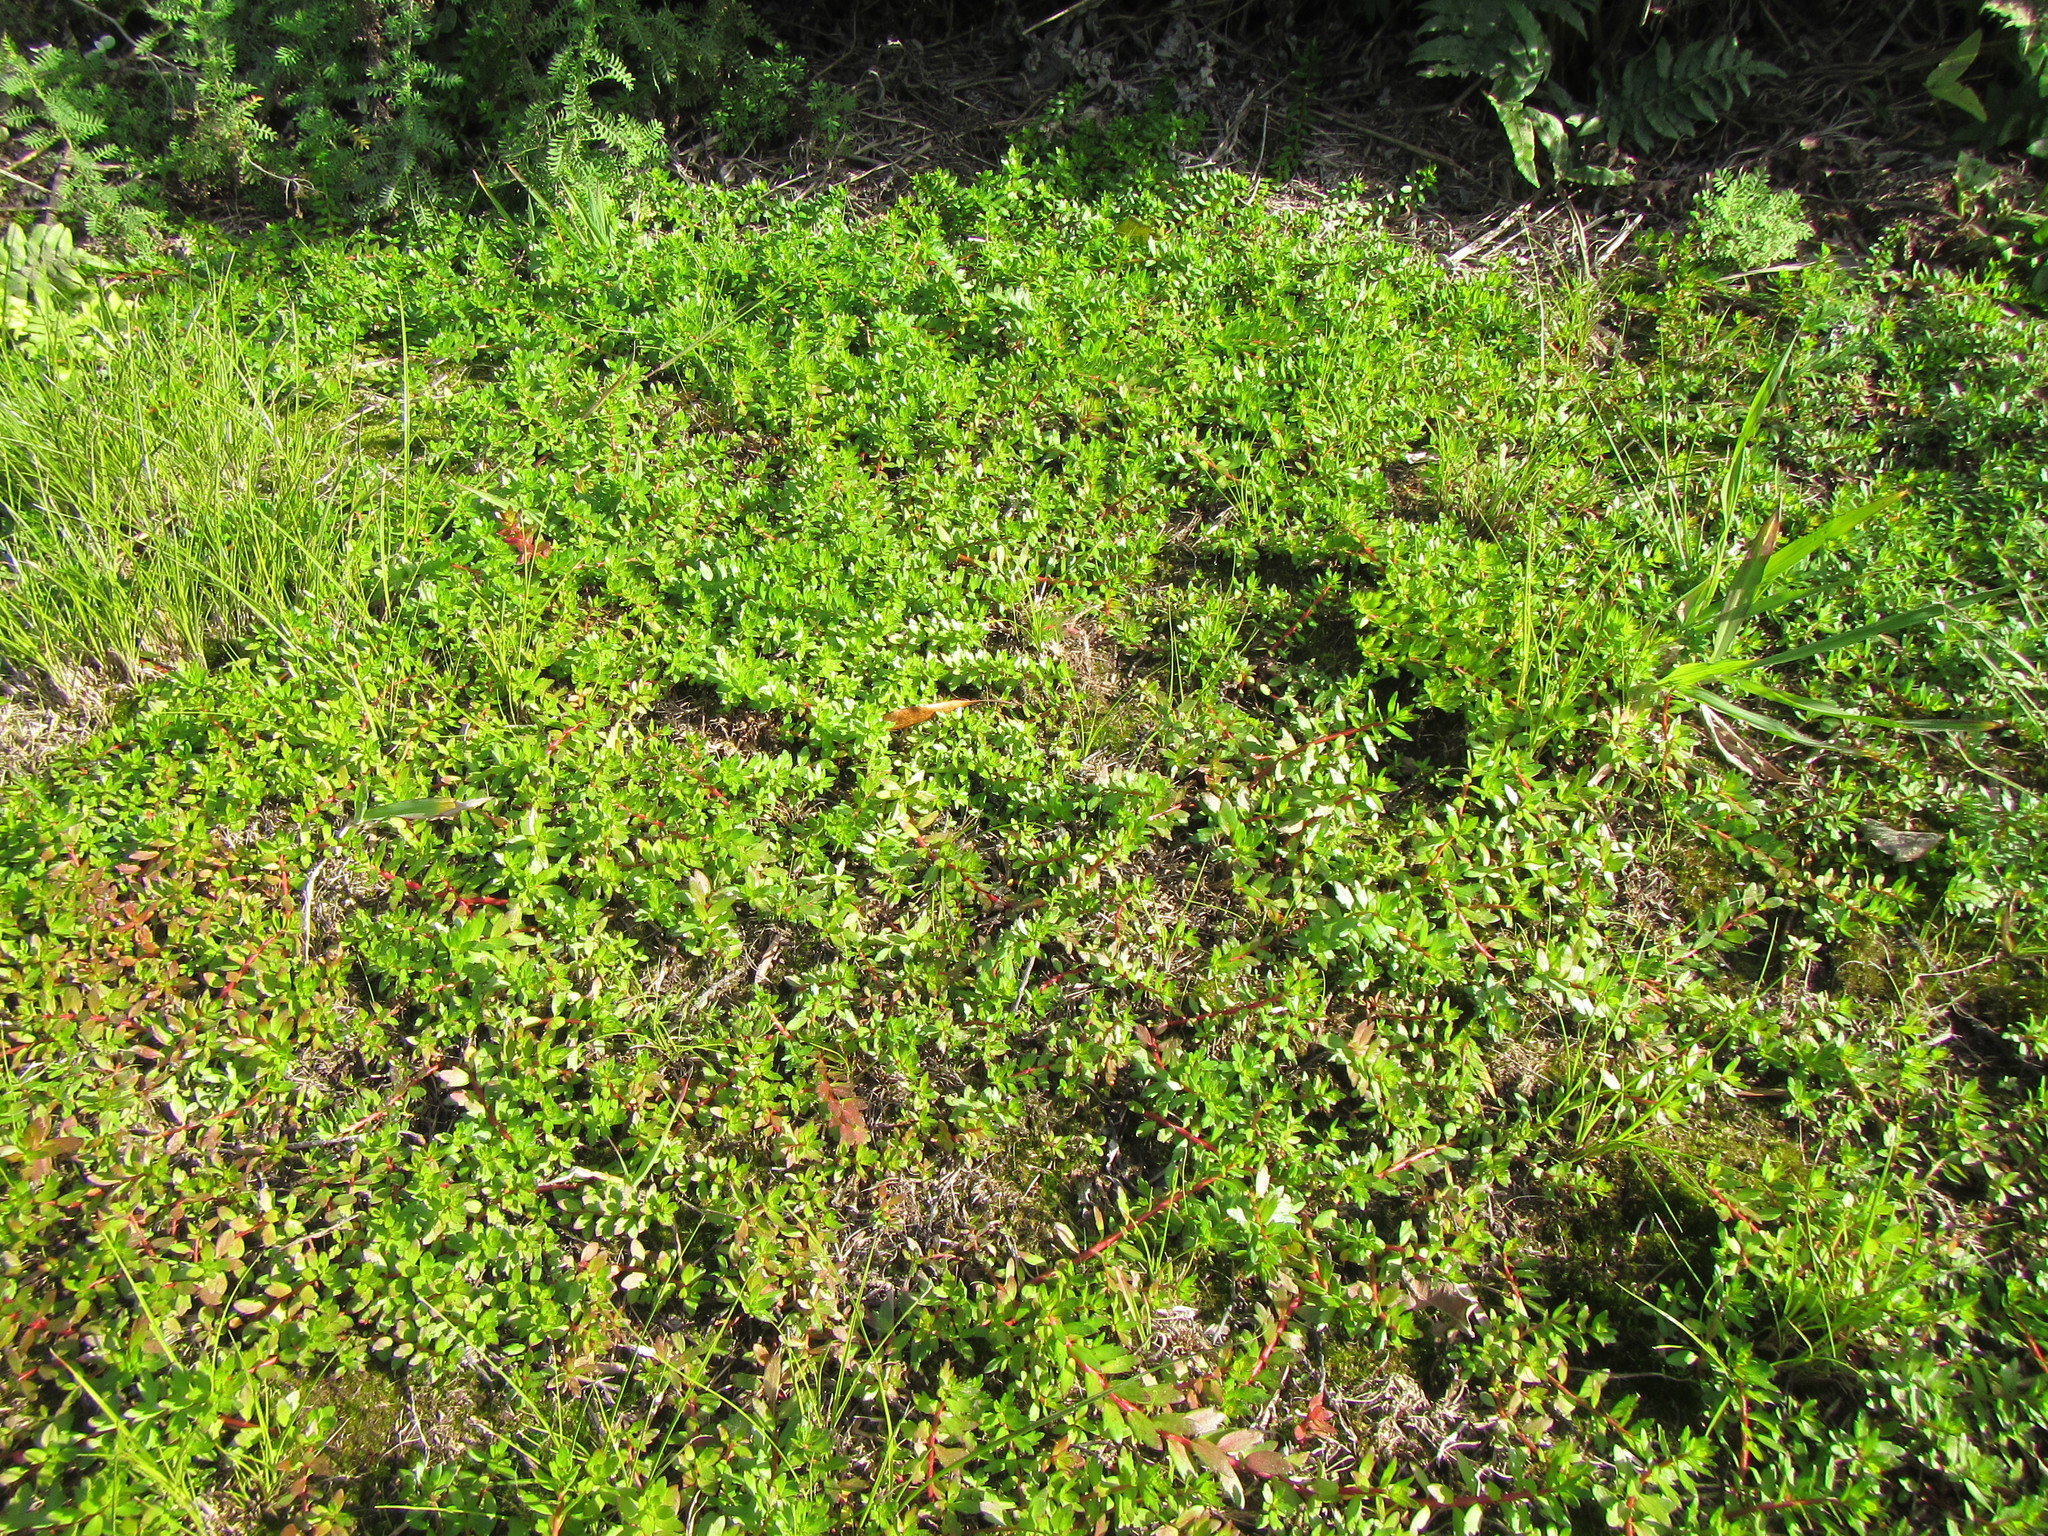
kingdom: Plantae
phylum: Tracheophyta
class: Magnoliopsida
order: Saxifragales
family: Haloragaceae
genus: Laurembergia
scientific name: Laurembergia repens
